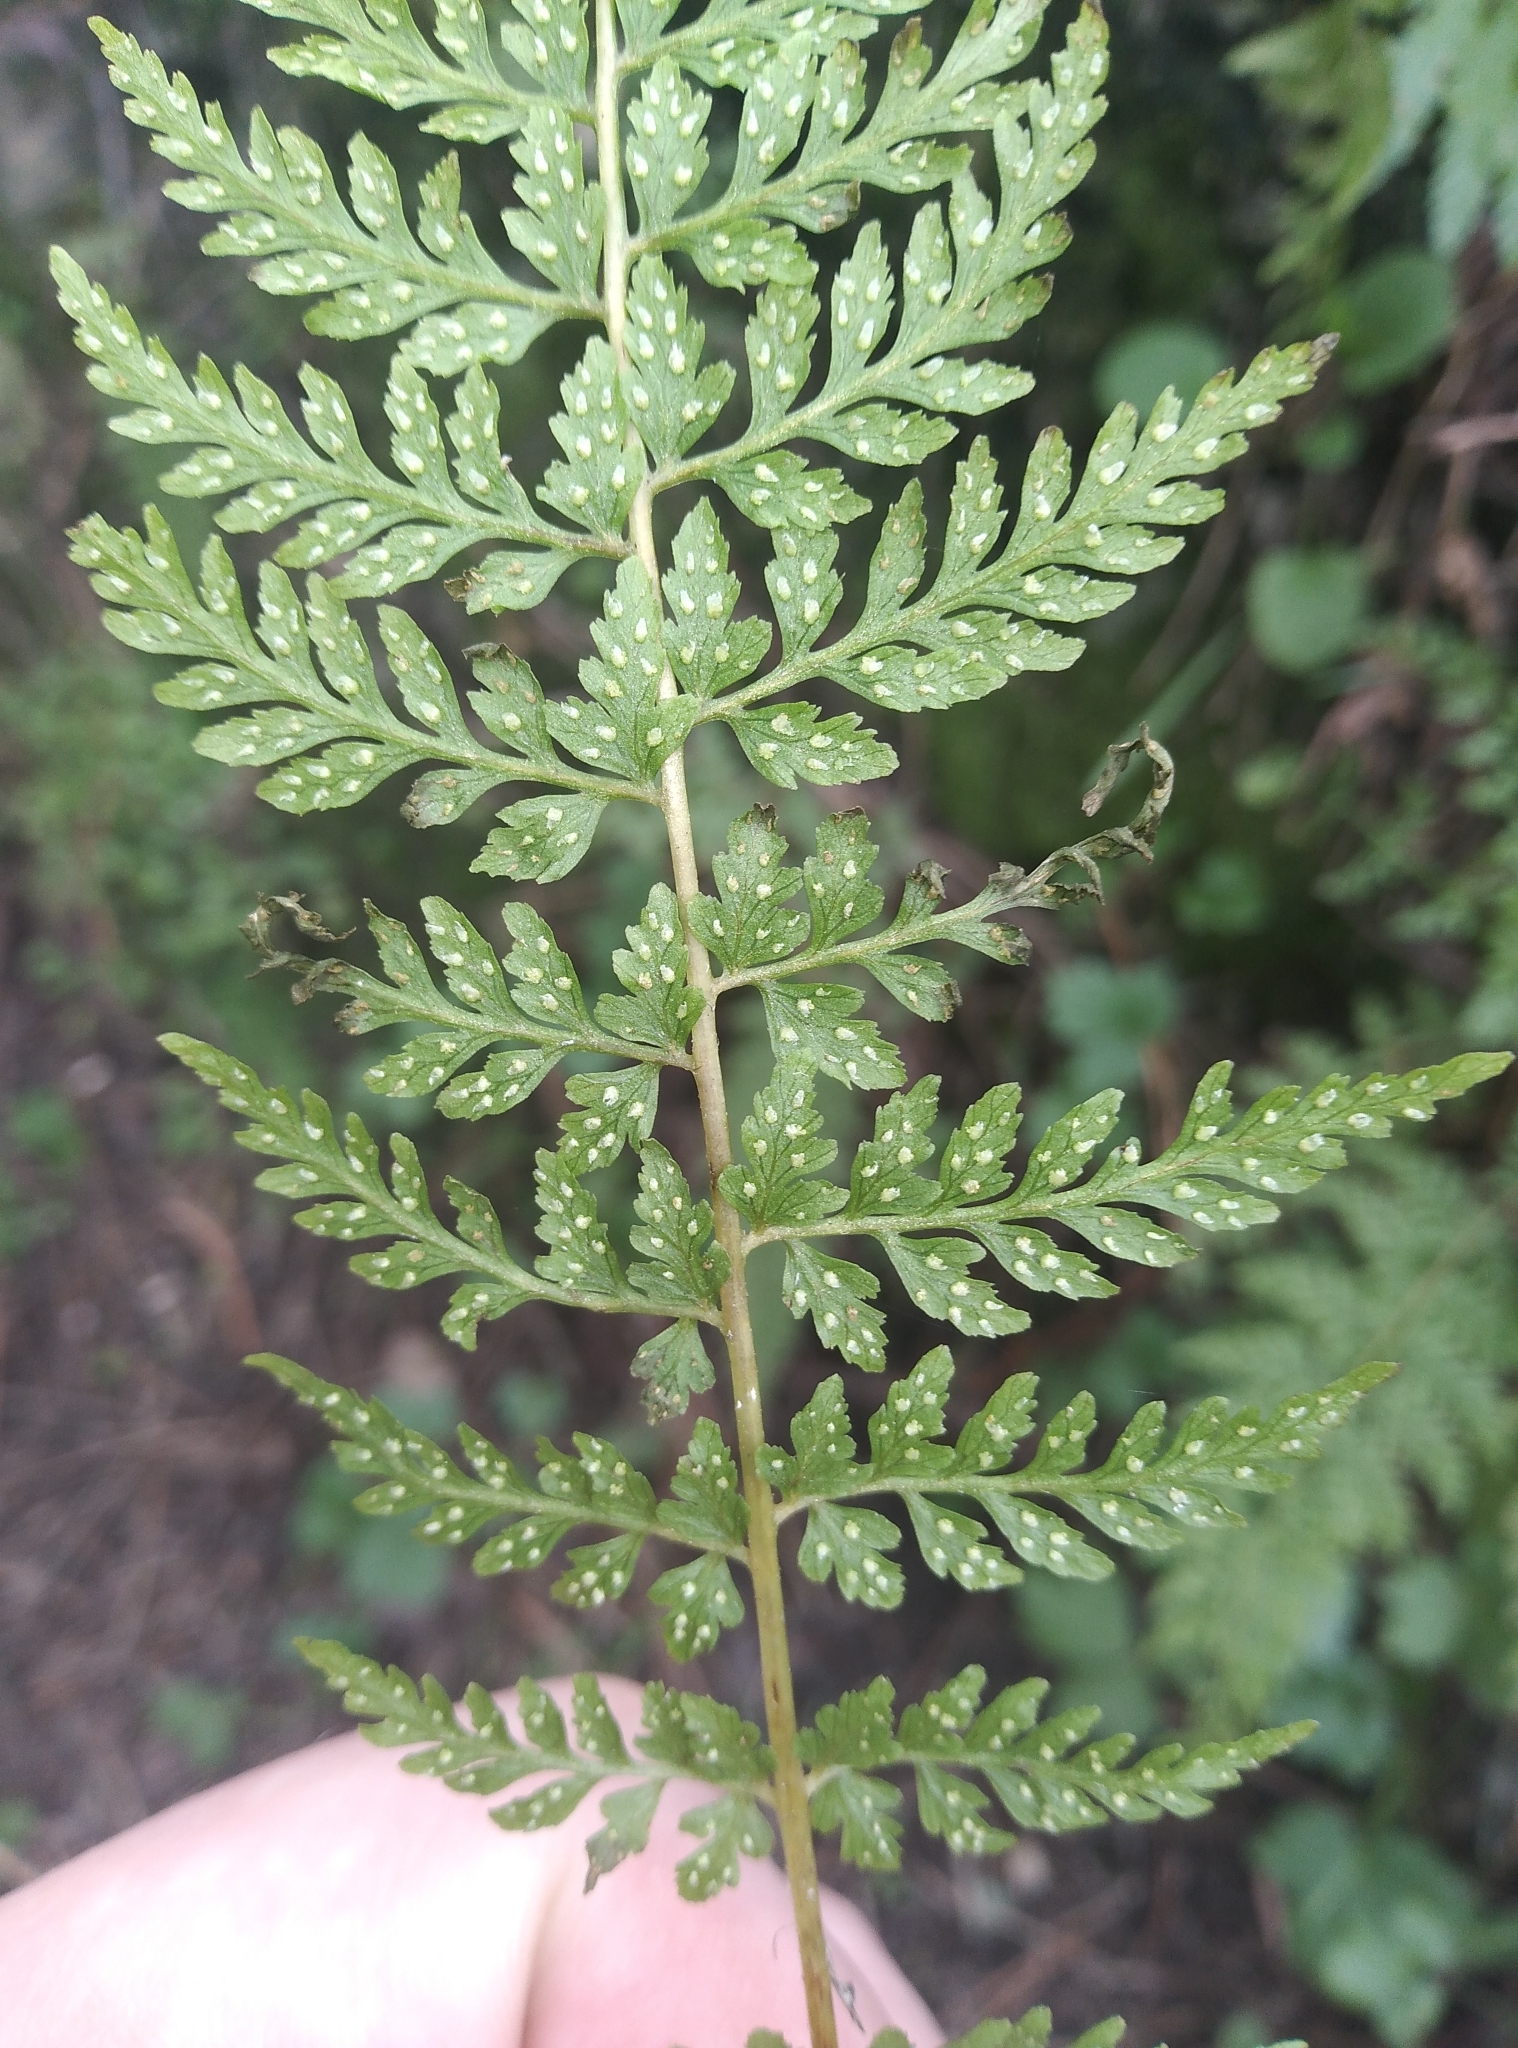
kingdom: Plantae
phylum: Tracheophyta
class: Polypodiopsida
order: Polypodiales
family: Cystopteridaceae
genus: Cystopteris
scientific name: Cystopteris fragilis
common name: Brittle bladder fern
